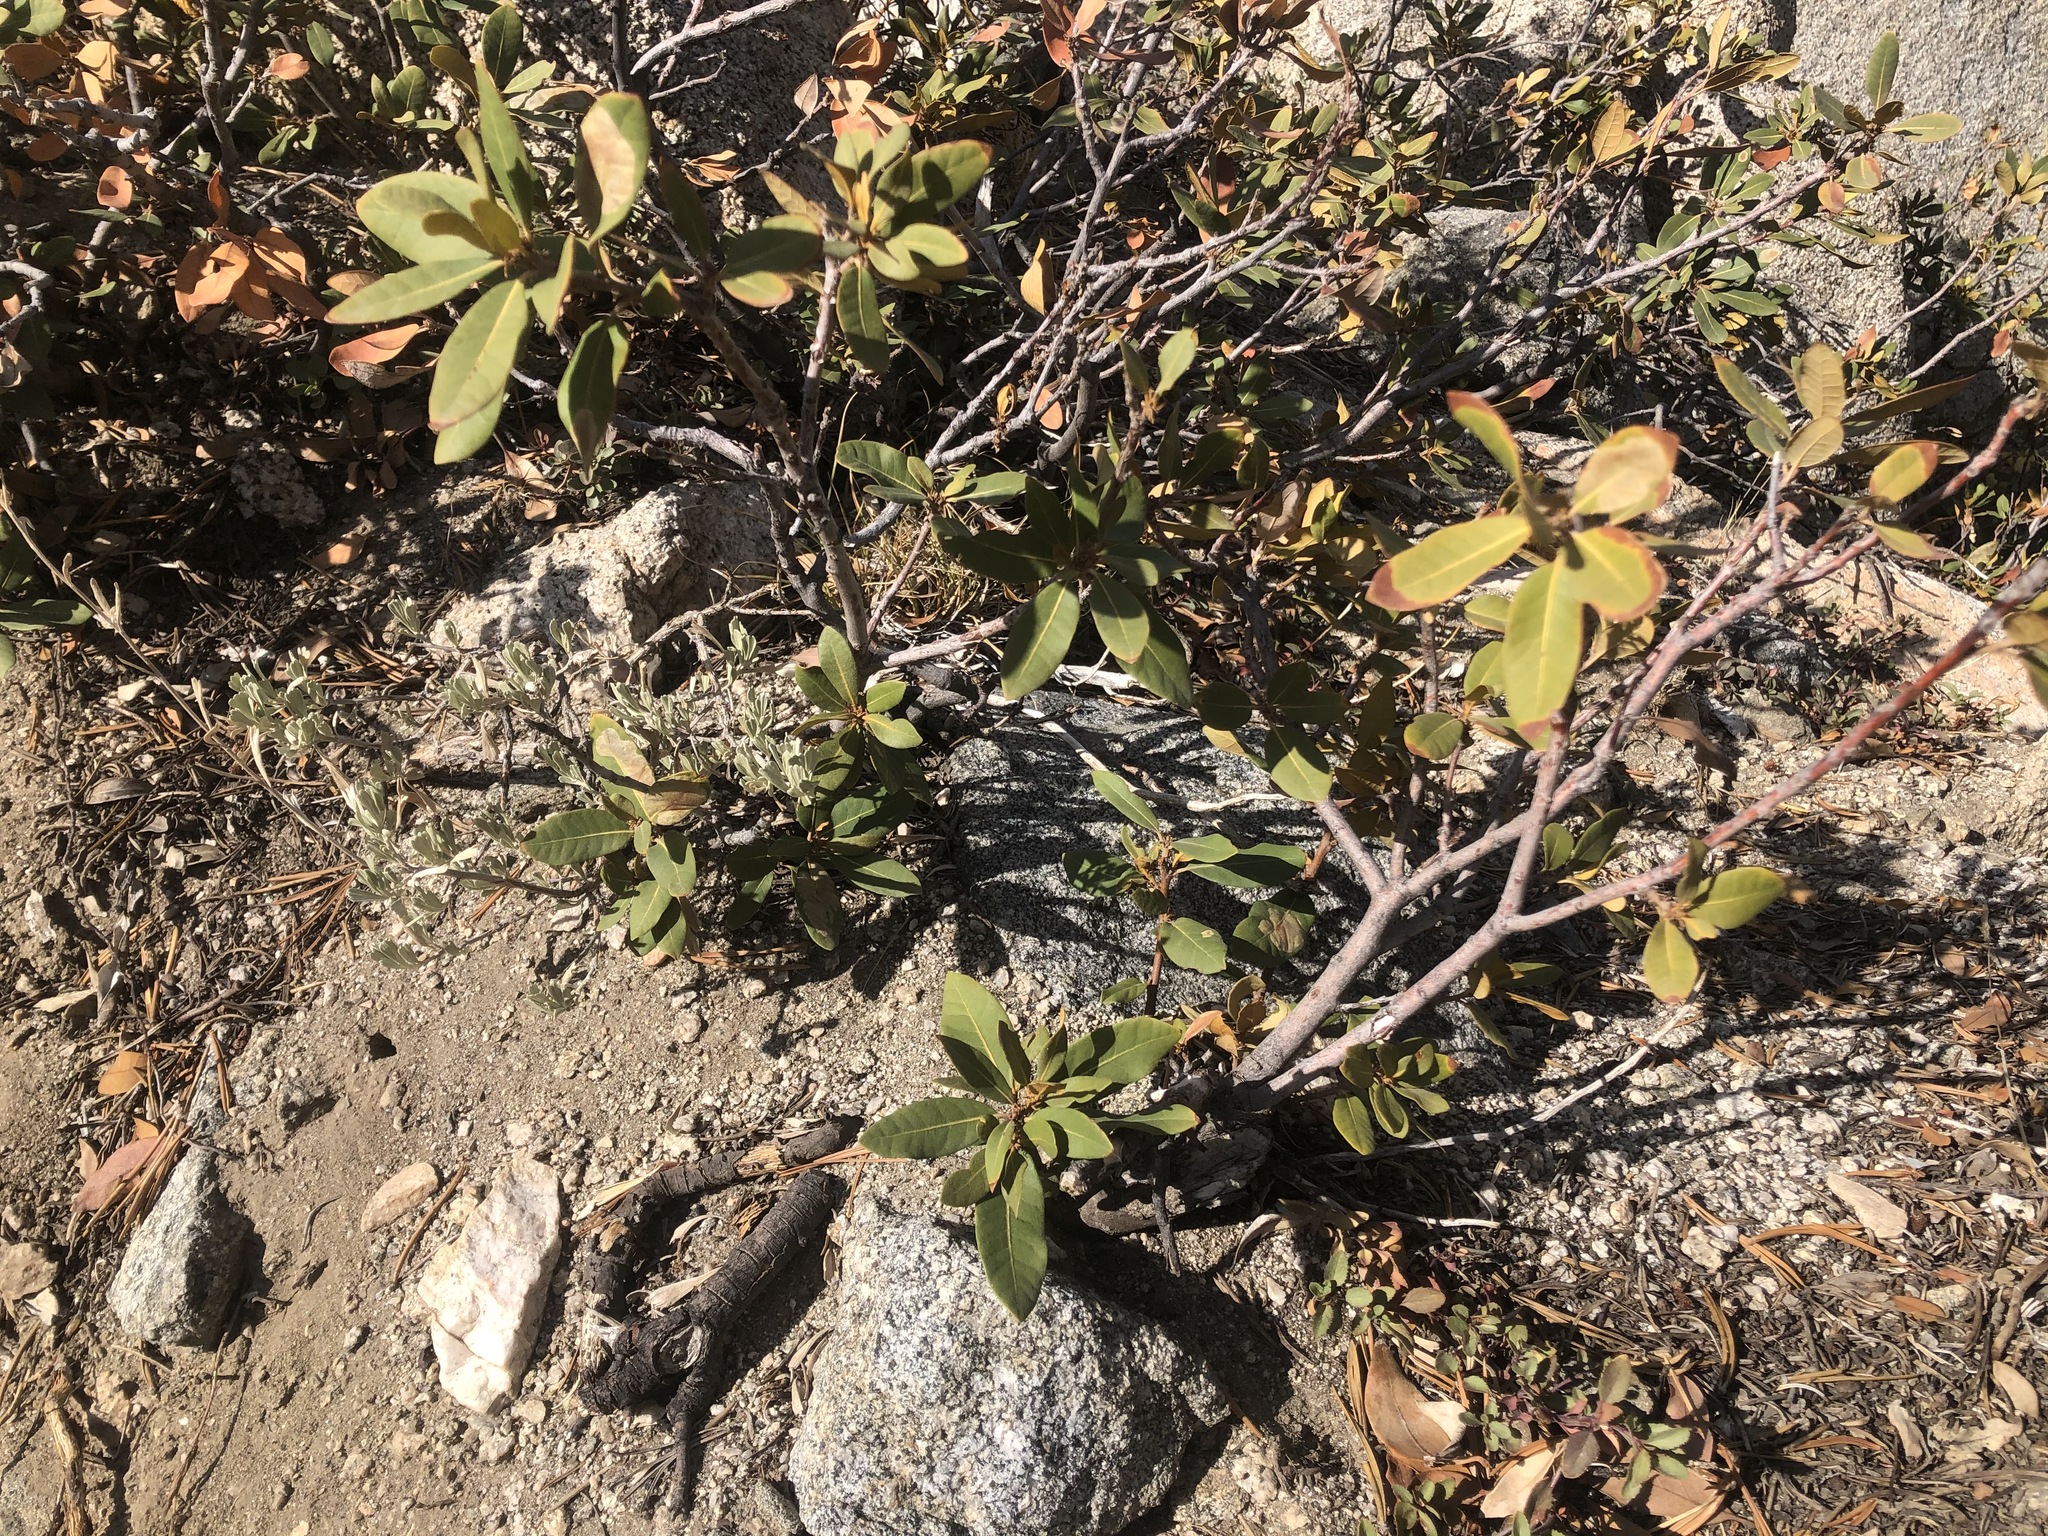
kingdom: Plantae
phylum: Tracheophyta
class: Magnoliopsida
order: Fagales
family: Fagaceae
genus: Chrysolepis
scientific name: Chrysolepis sempervirens
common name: Bush chinquapin
